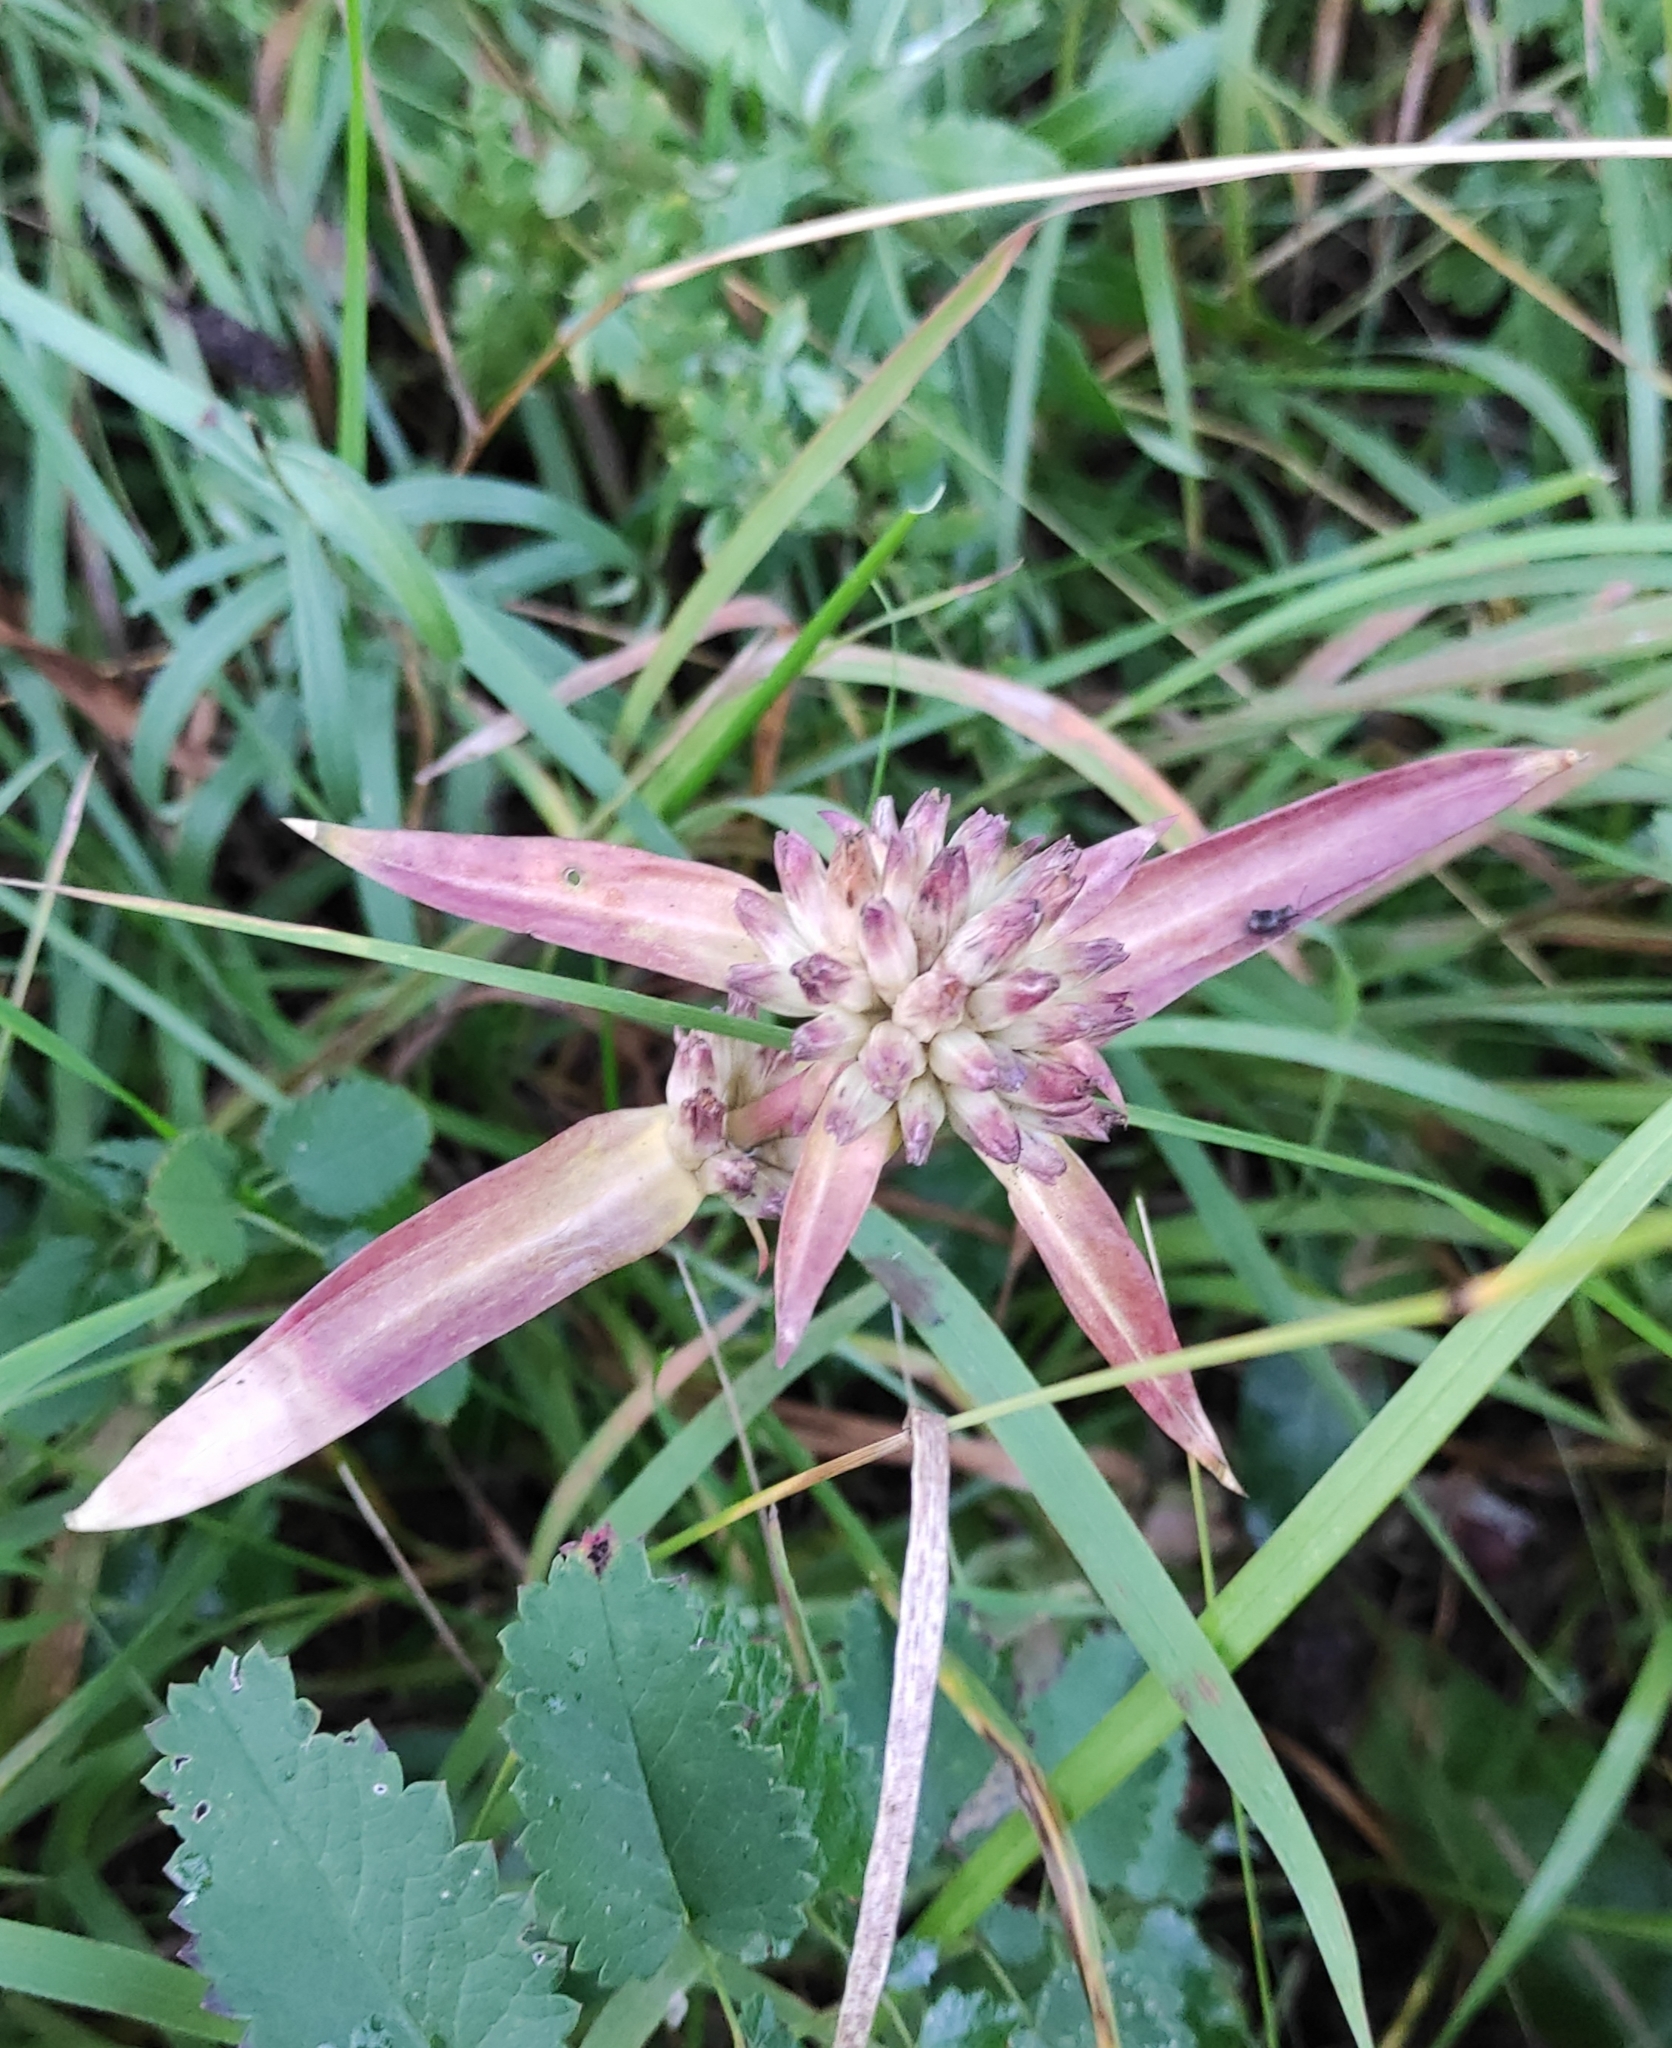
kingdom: Plantae
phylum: Tracheophyta
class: Magnoliopsida
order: Gentianales
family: Gentianaceae
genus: Gentiana
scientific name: Gentiana macrophylla
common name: Large-leaf gentian
